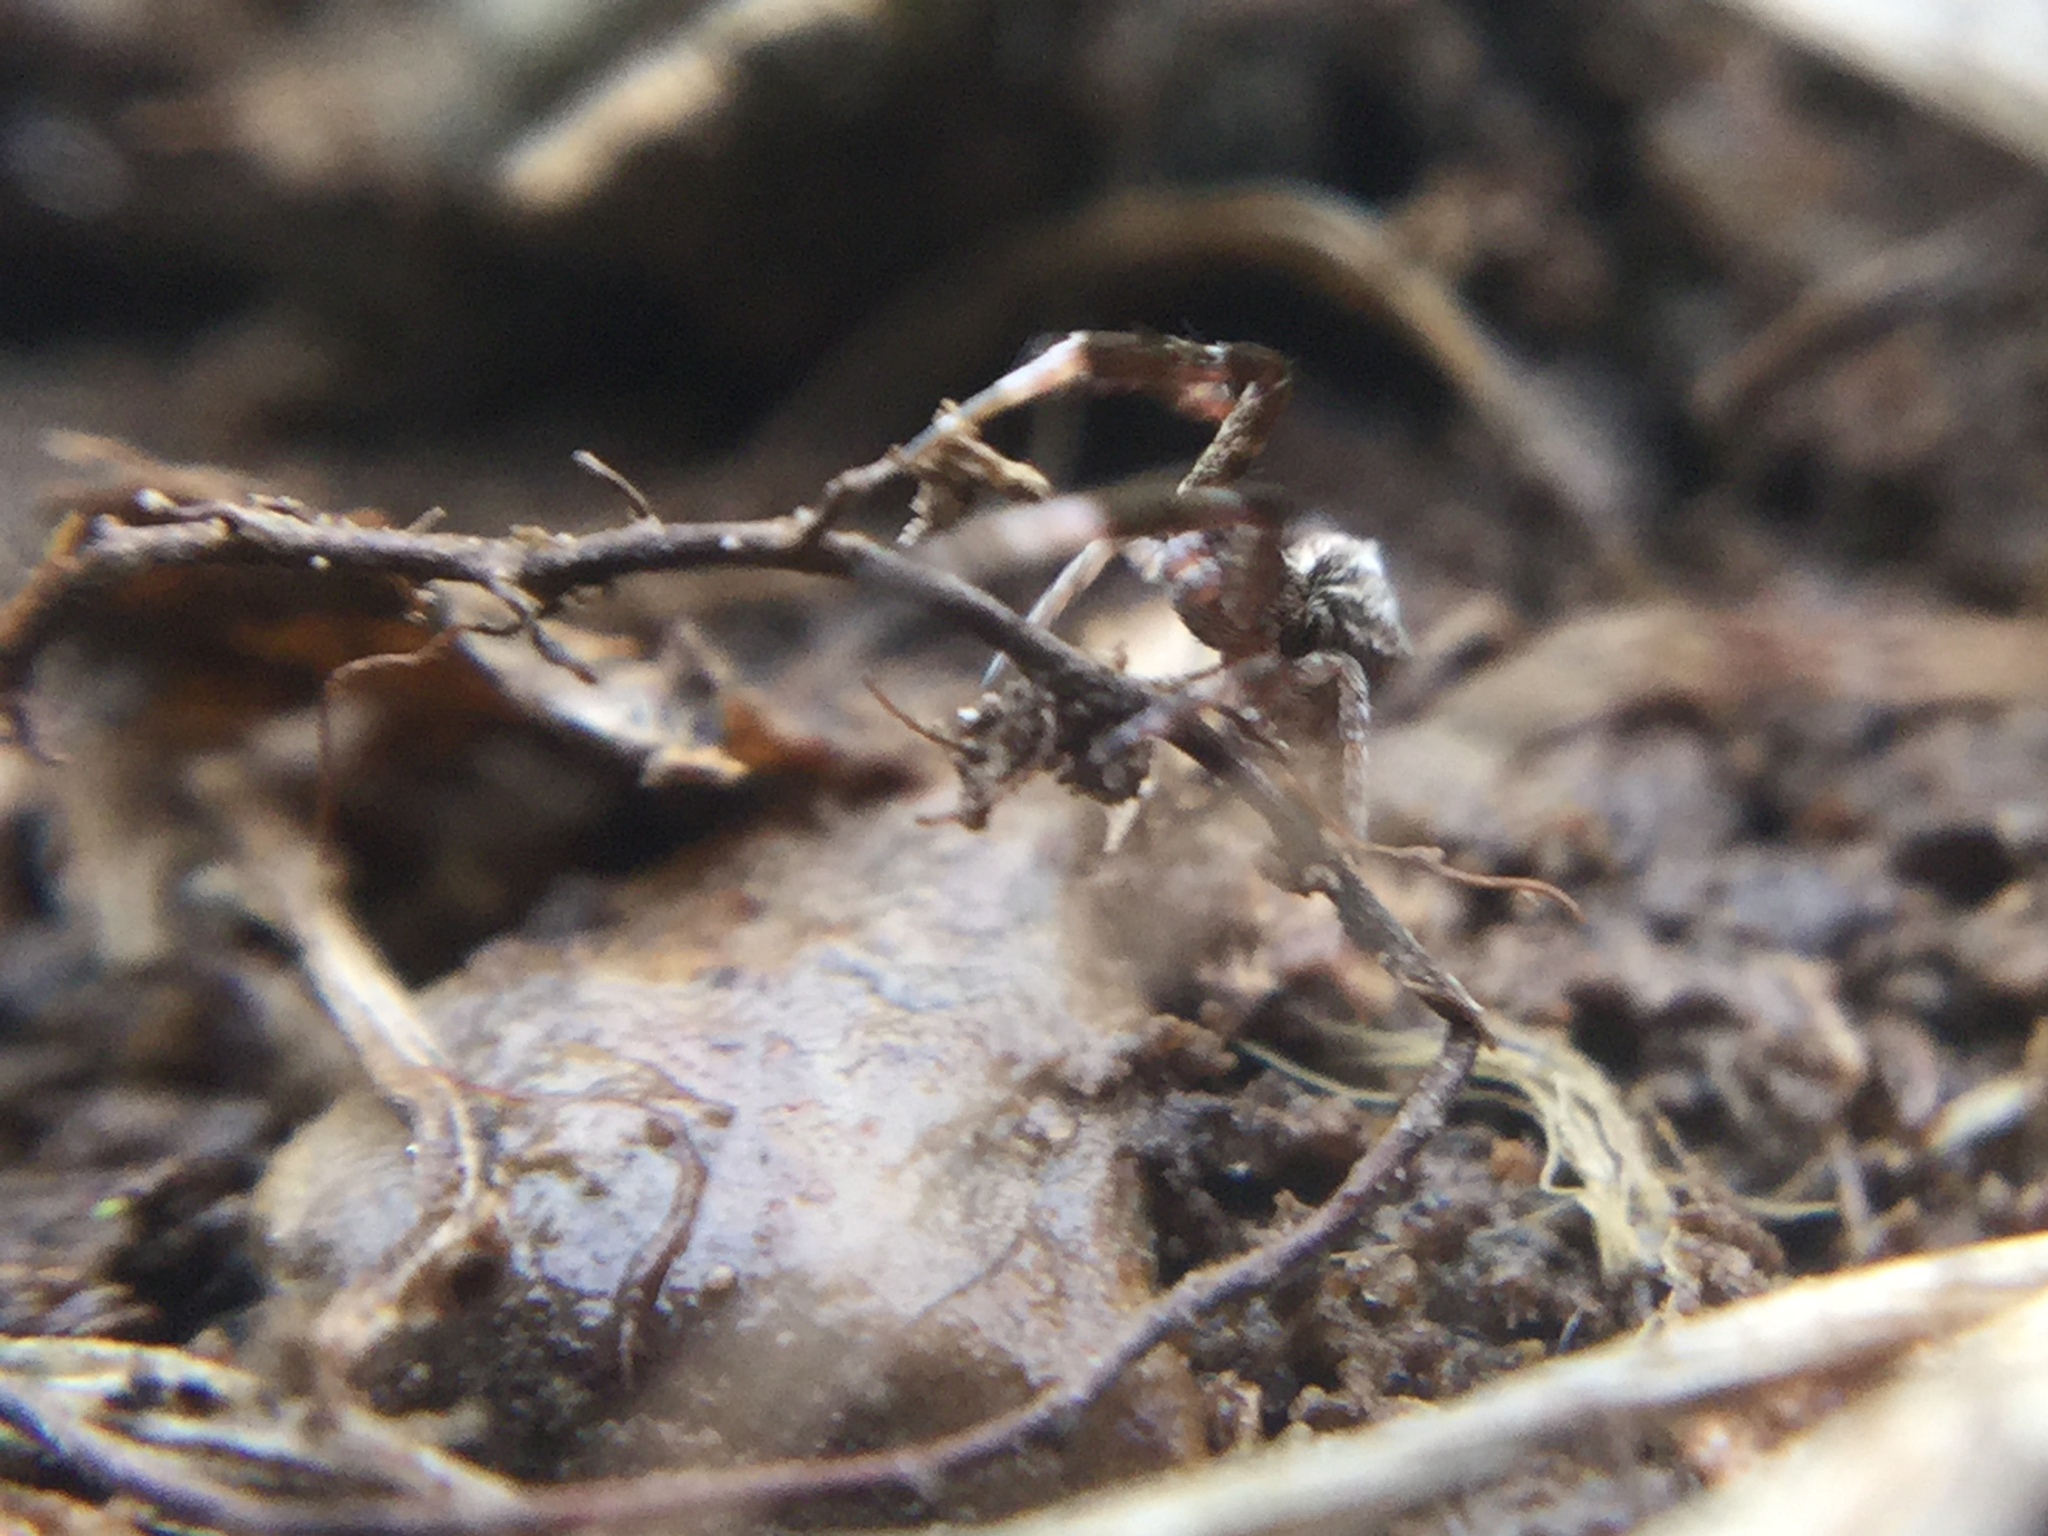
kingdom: Animalia
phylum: Arthropoda
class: Arachnida
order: Araneae
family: Uloboridae
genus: Uloborus
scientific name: Uloborus glomosus
